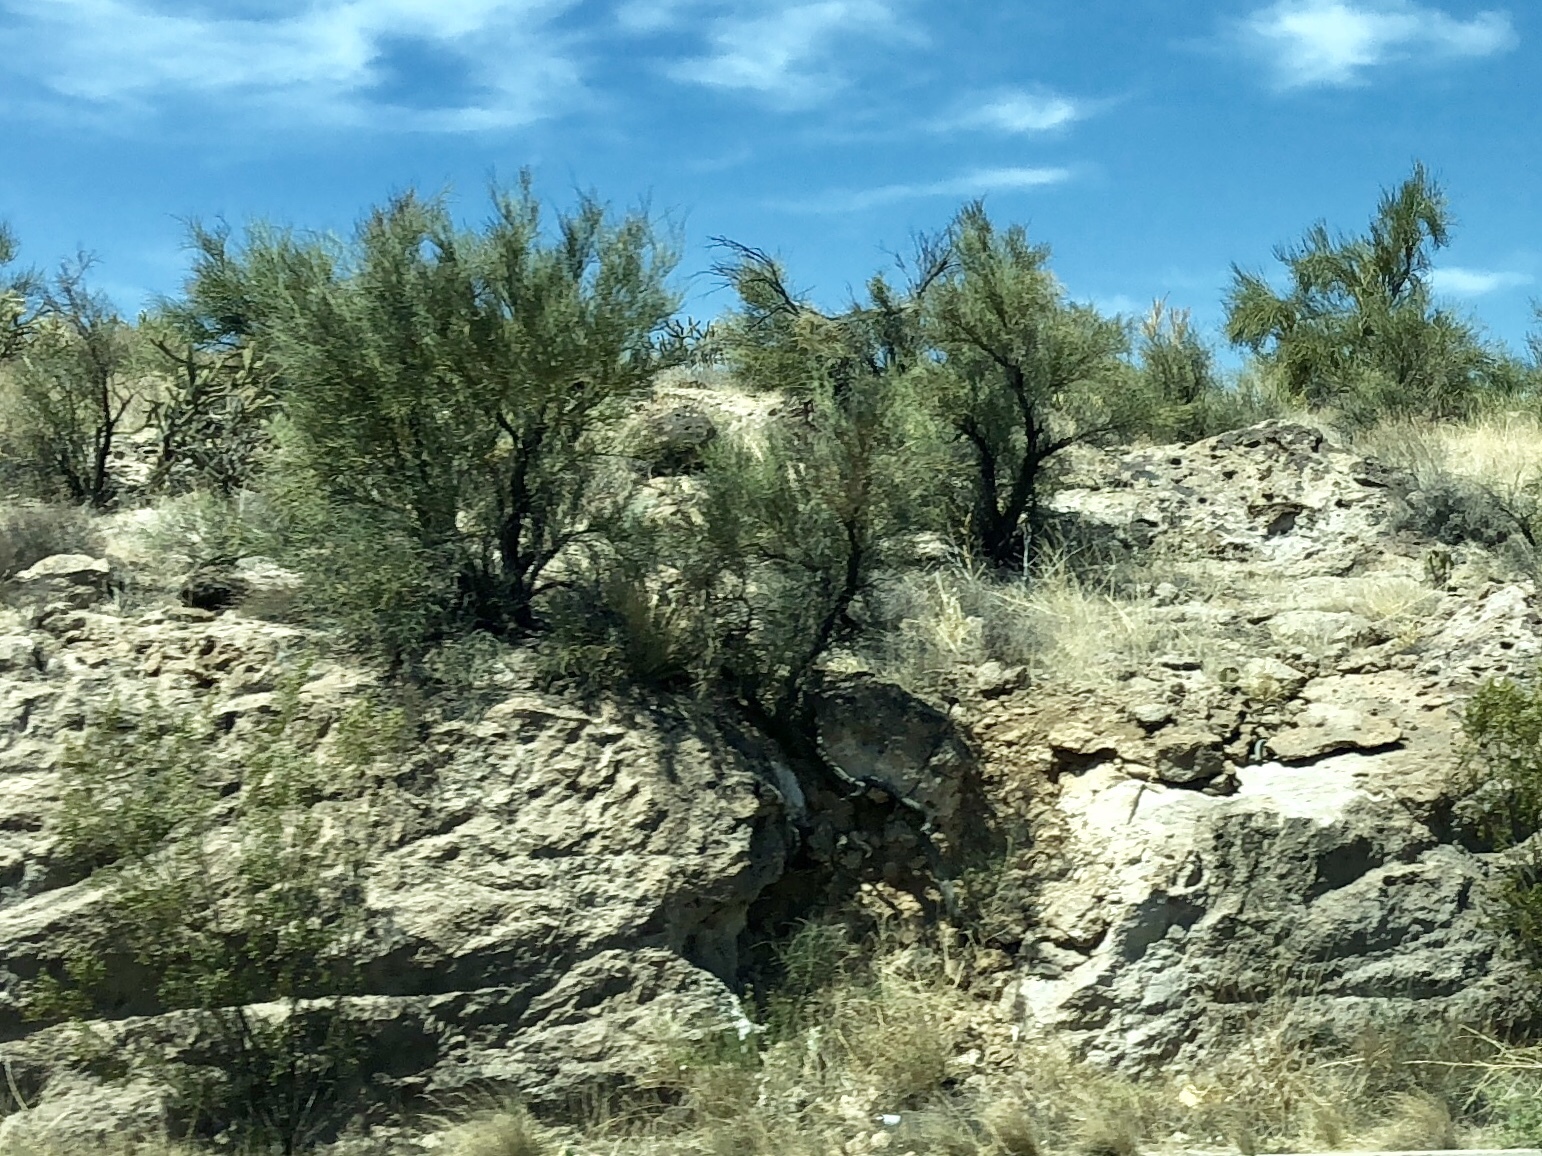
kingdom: Plantae
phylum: Tracheophyta
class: Magnoliopsida
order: Celastrales
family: Celastraceae
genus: Canotia
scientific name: Canotia holacantha
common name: Crucifixion thorns
